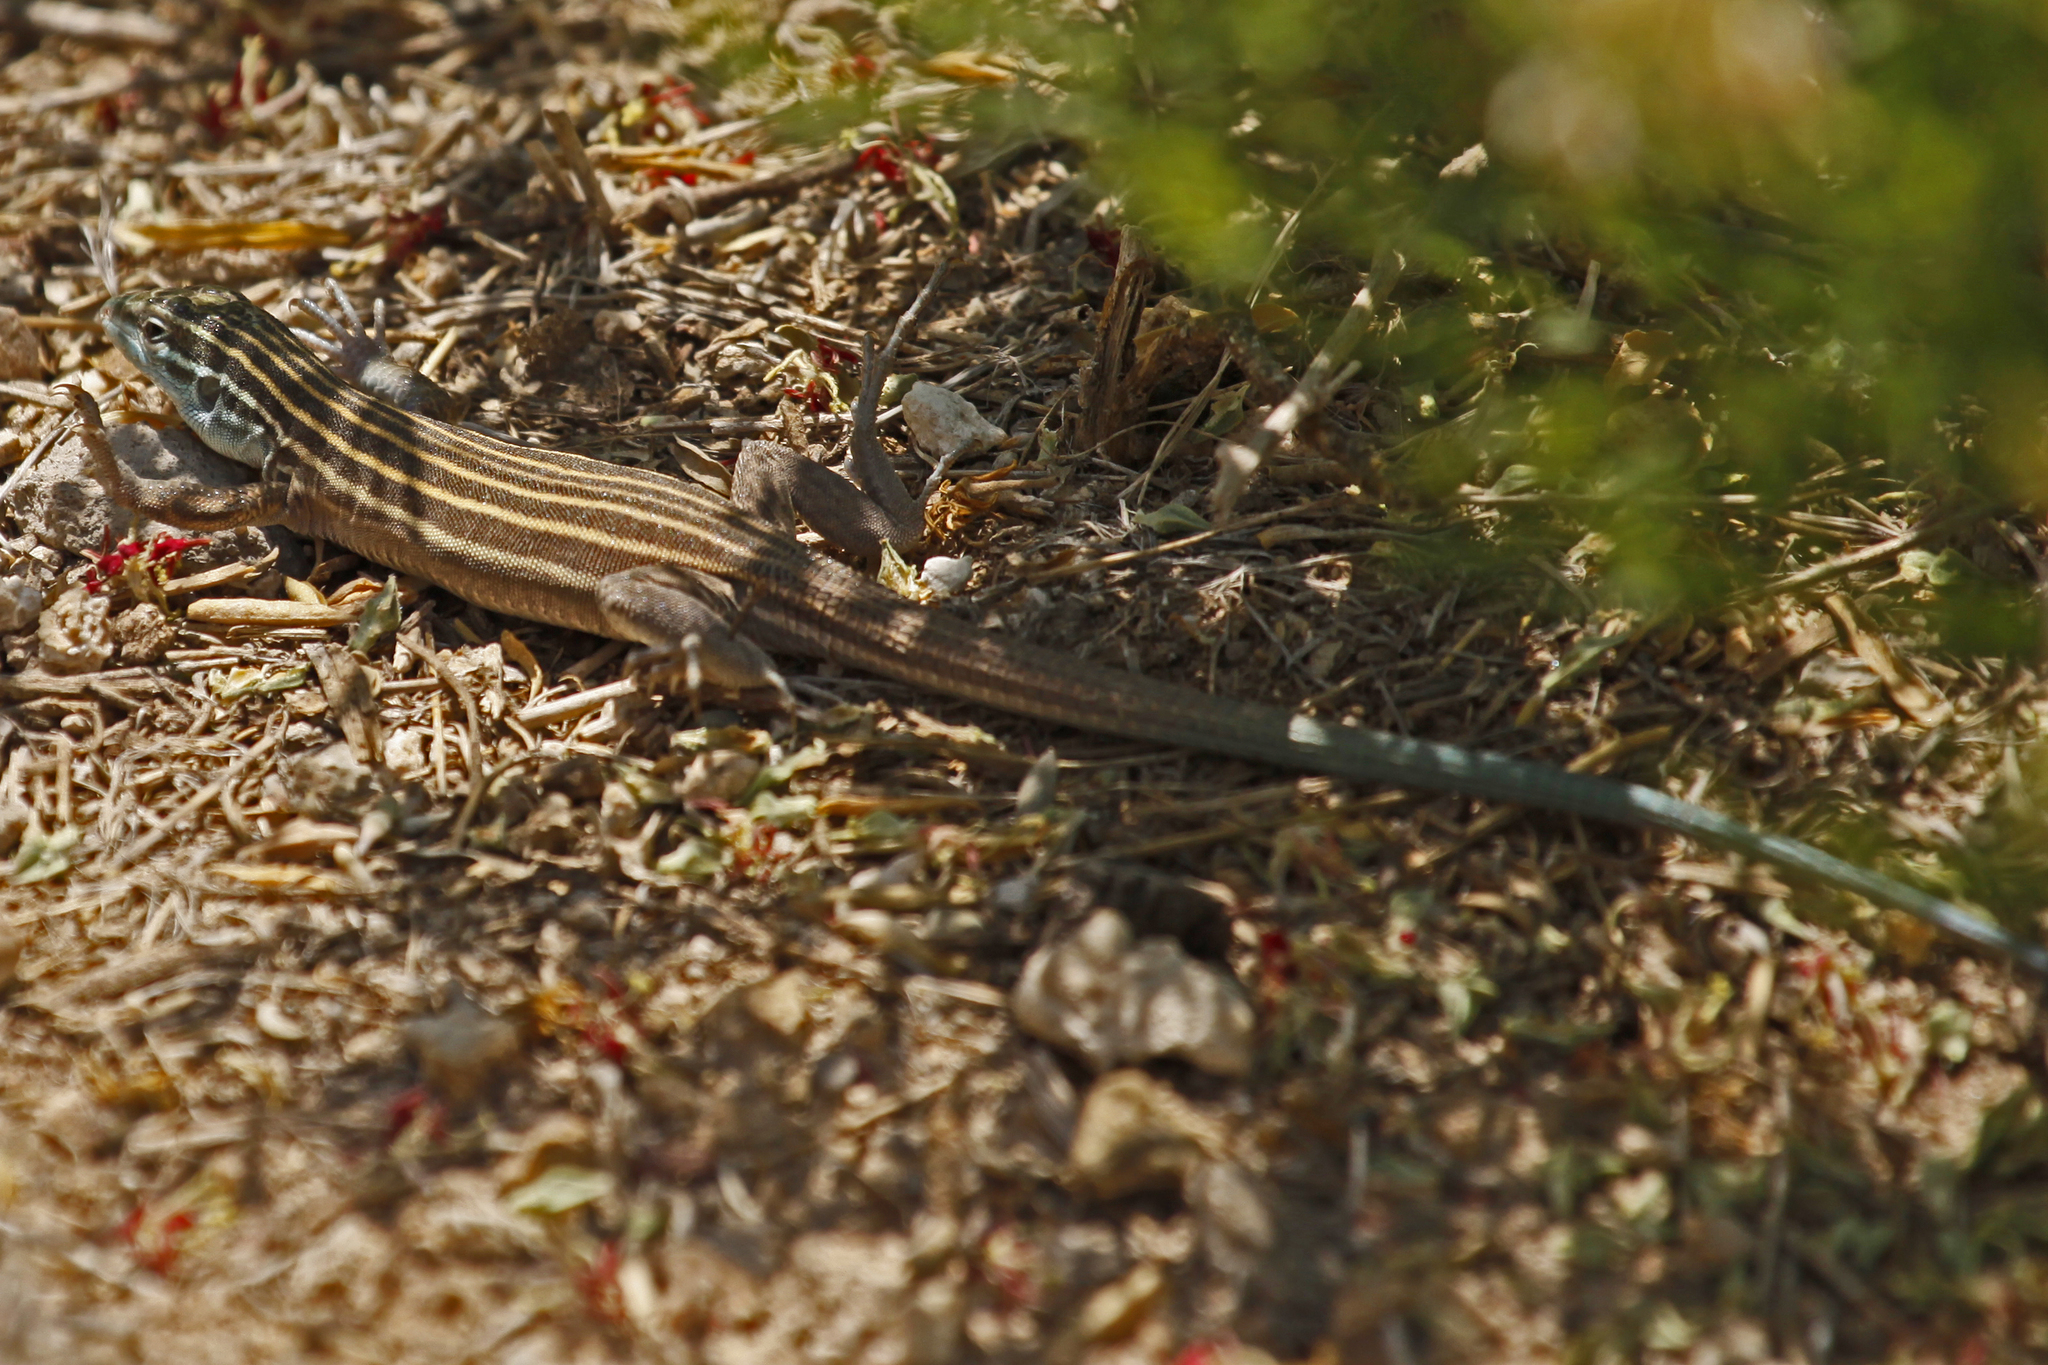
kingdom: Animalia
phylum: Chordata
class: Squamata
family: Teiidae
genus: Aspidoscelis
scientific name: Aspidoscelis inornatus
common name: Little striped whiptail
